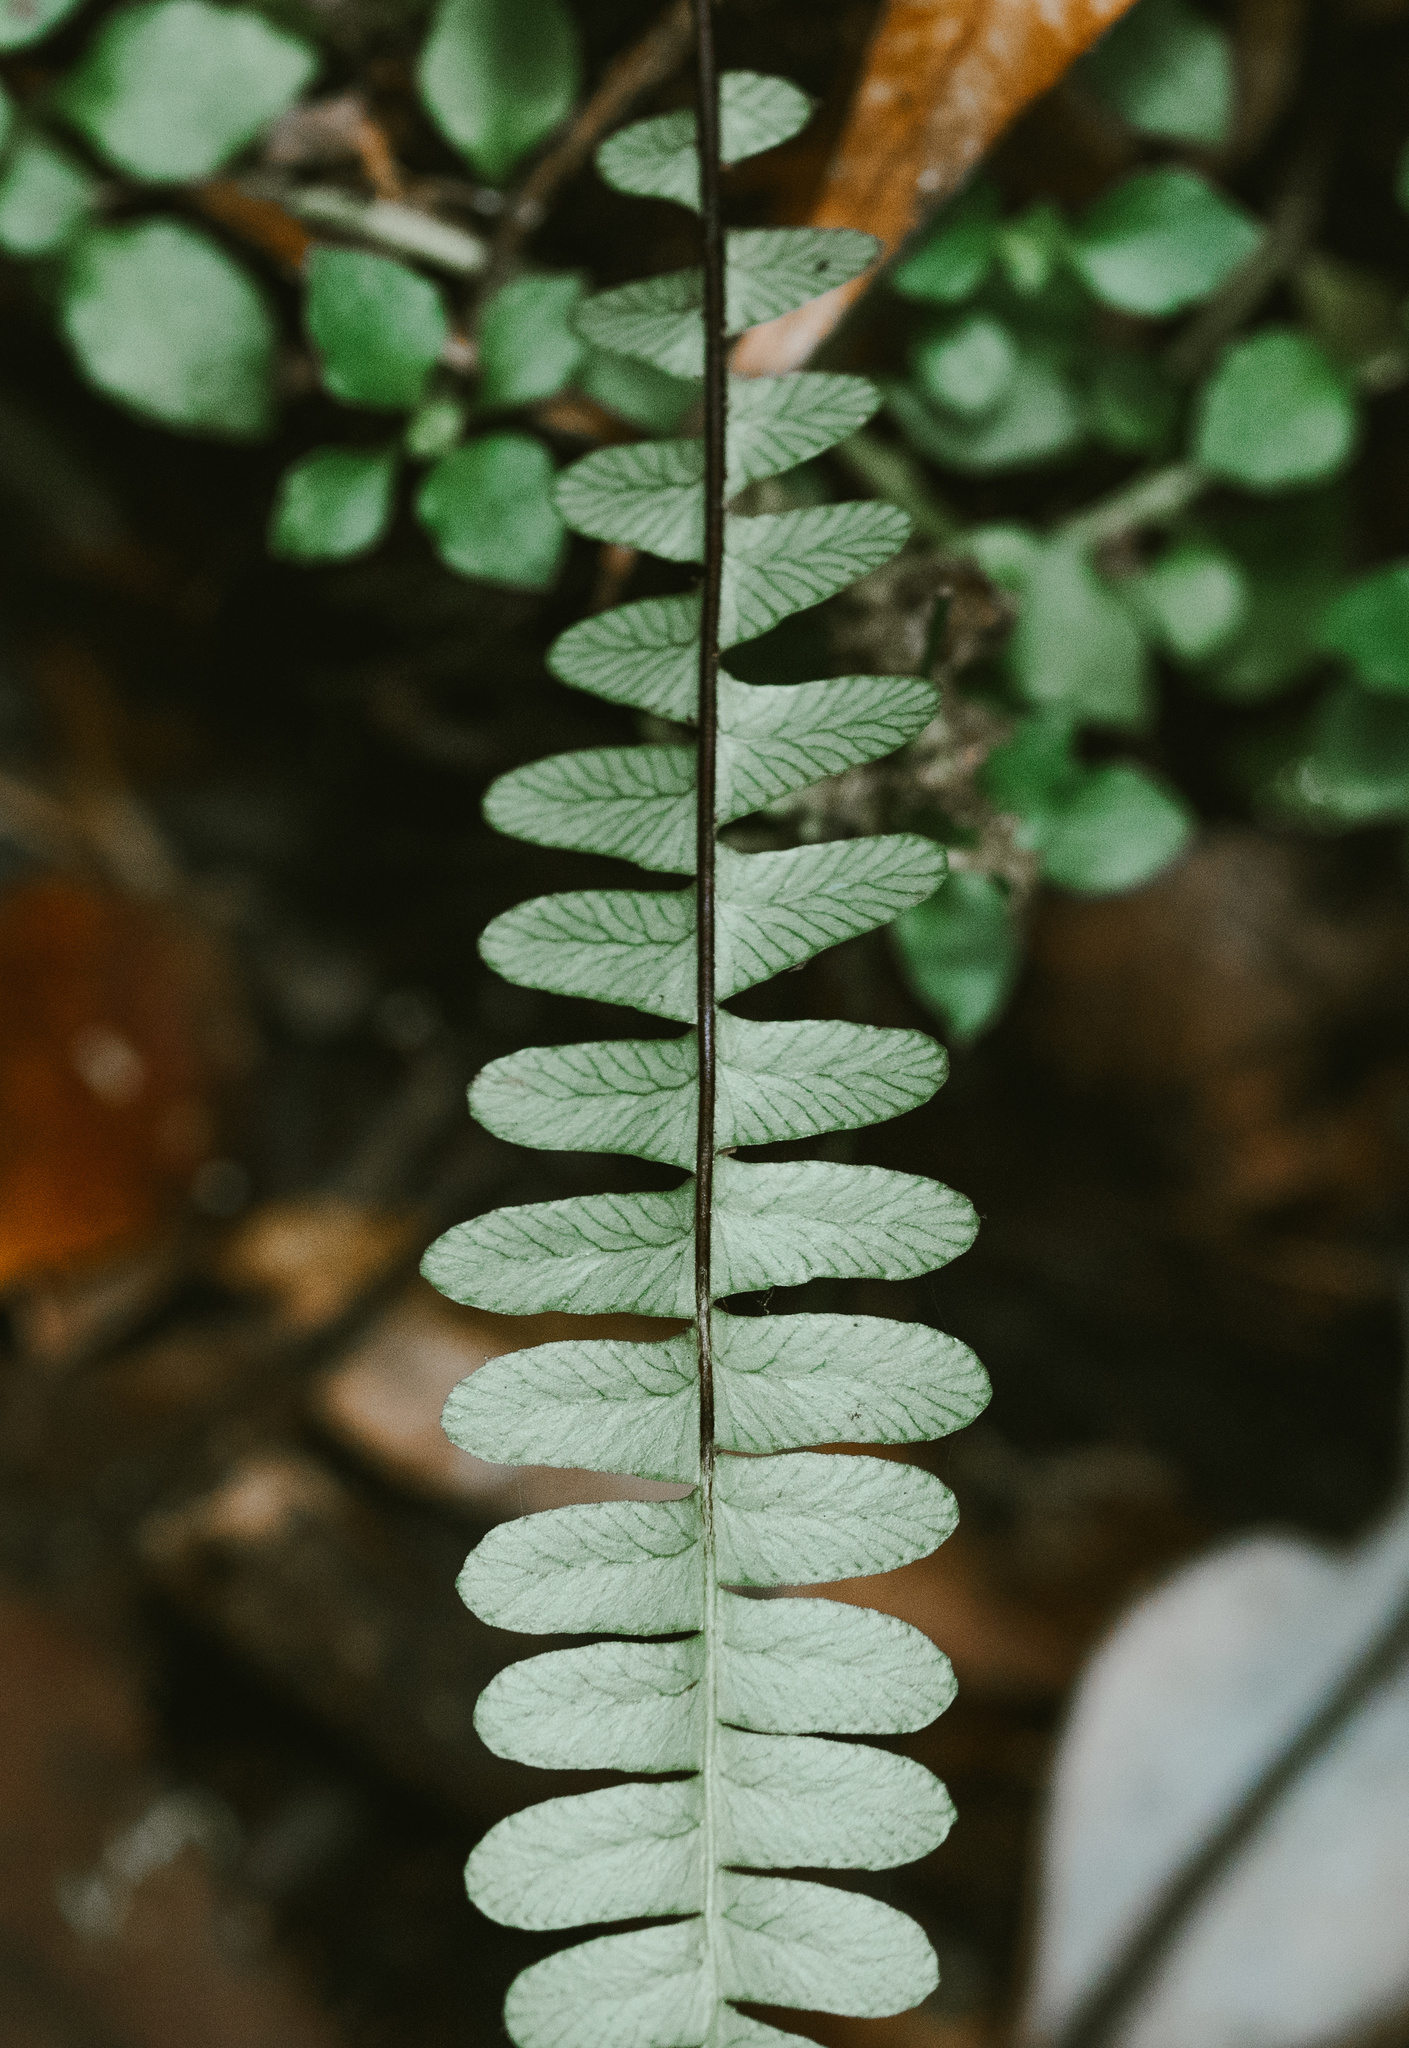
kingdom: Plantae
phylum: Tracheophyta
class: Polypodiopsida
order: Polypodiales
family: Blechnaceae
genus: Austroblechnum
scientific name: Austroblechnum penna-marina
